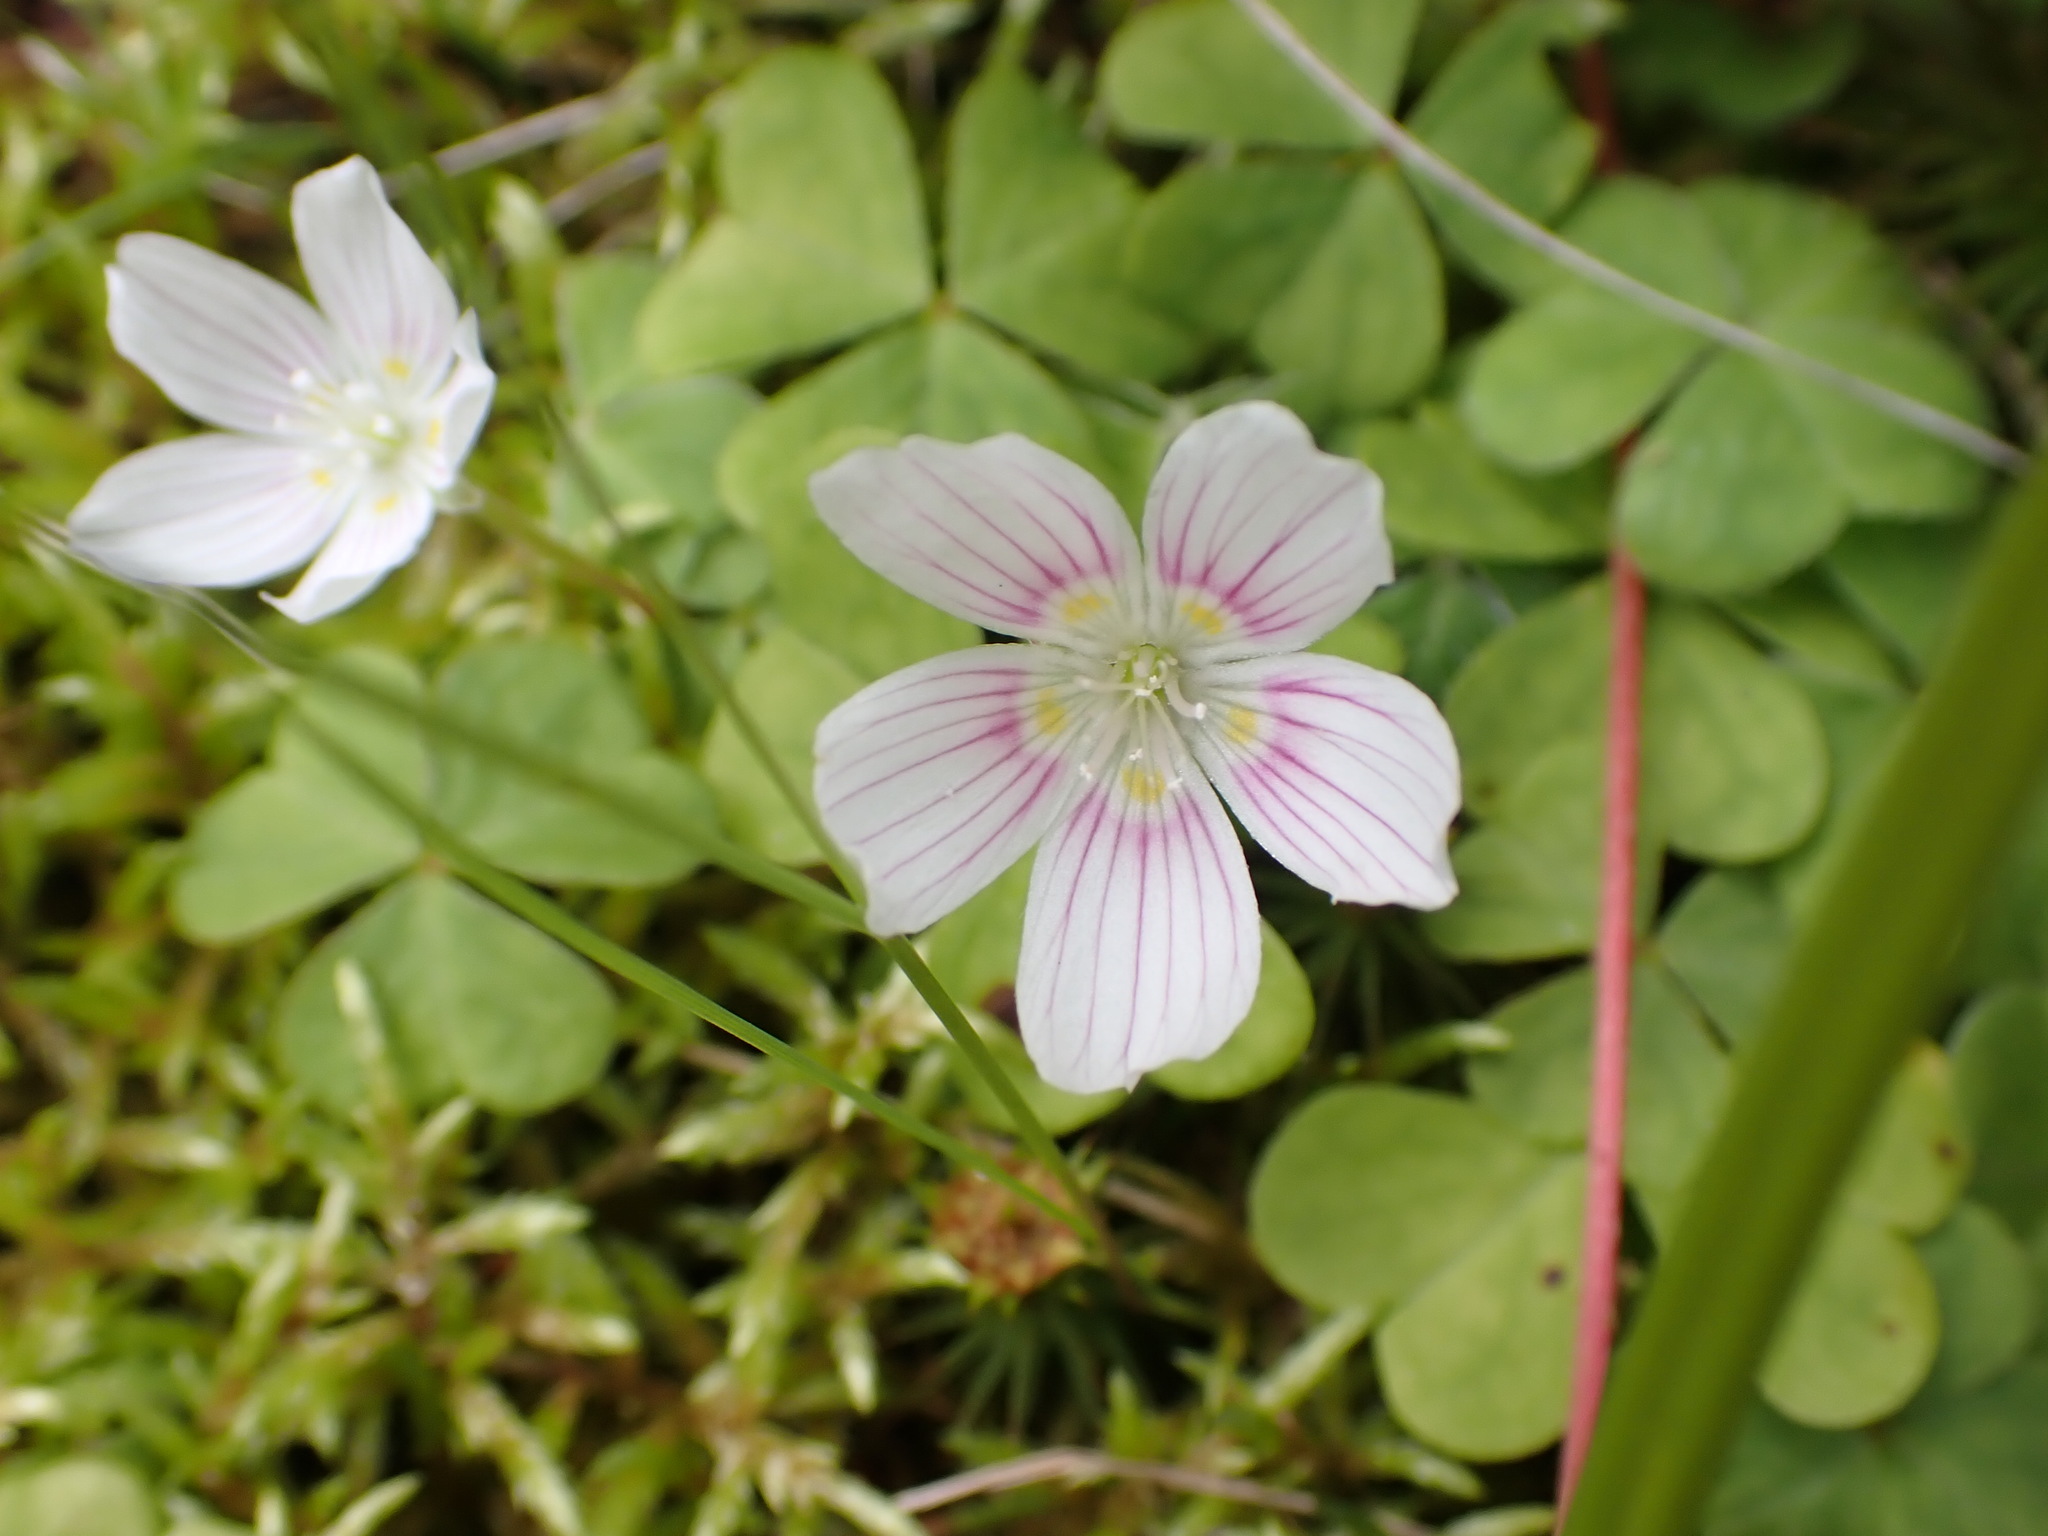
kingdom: Plantae
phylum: Tracheophyta
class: Magnoliopsida
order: Oxalidales
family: Oxalidaceae
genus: Oxalis
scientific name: Oxalis montana
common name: American wood-sorrel
